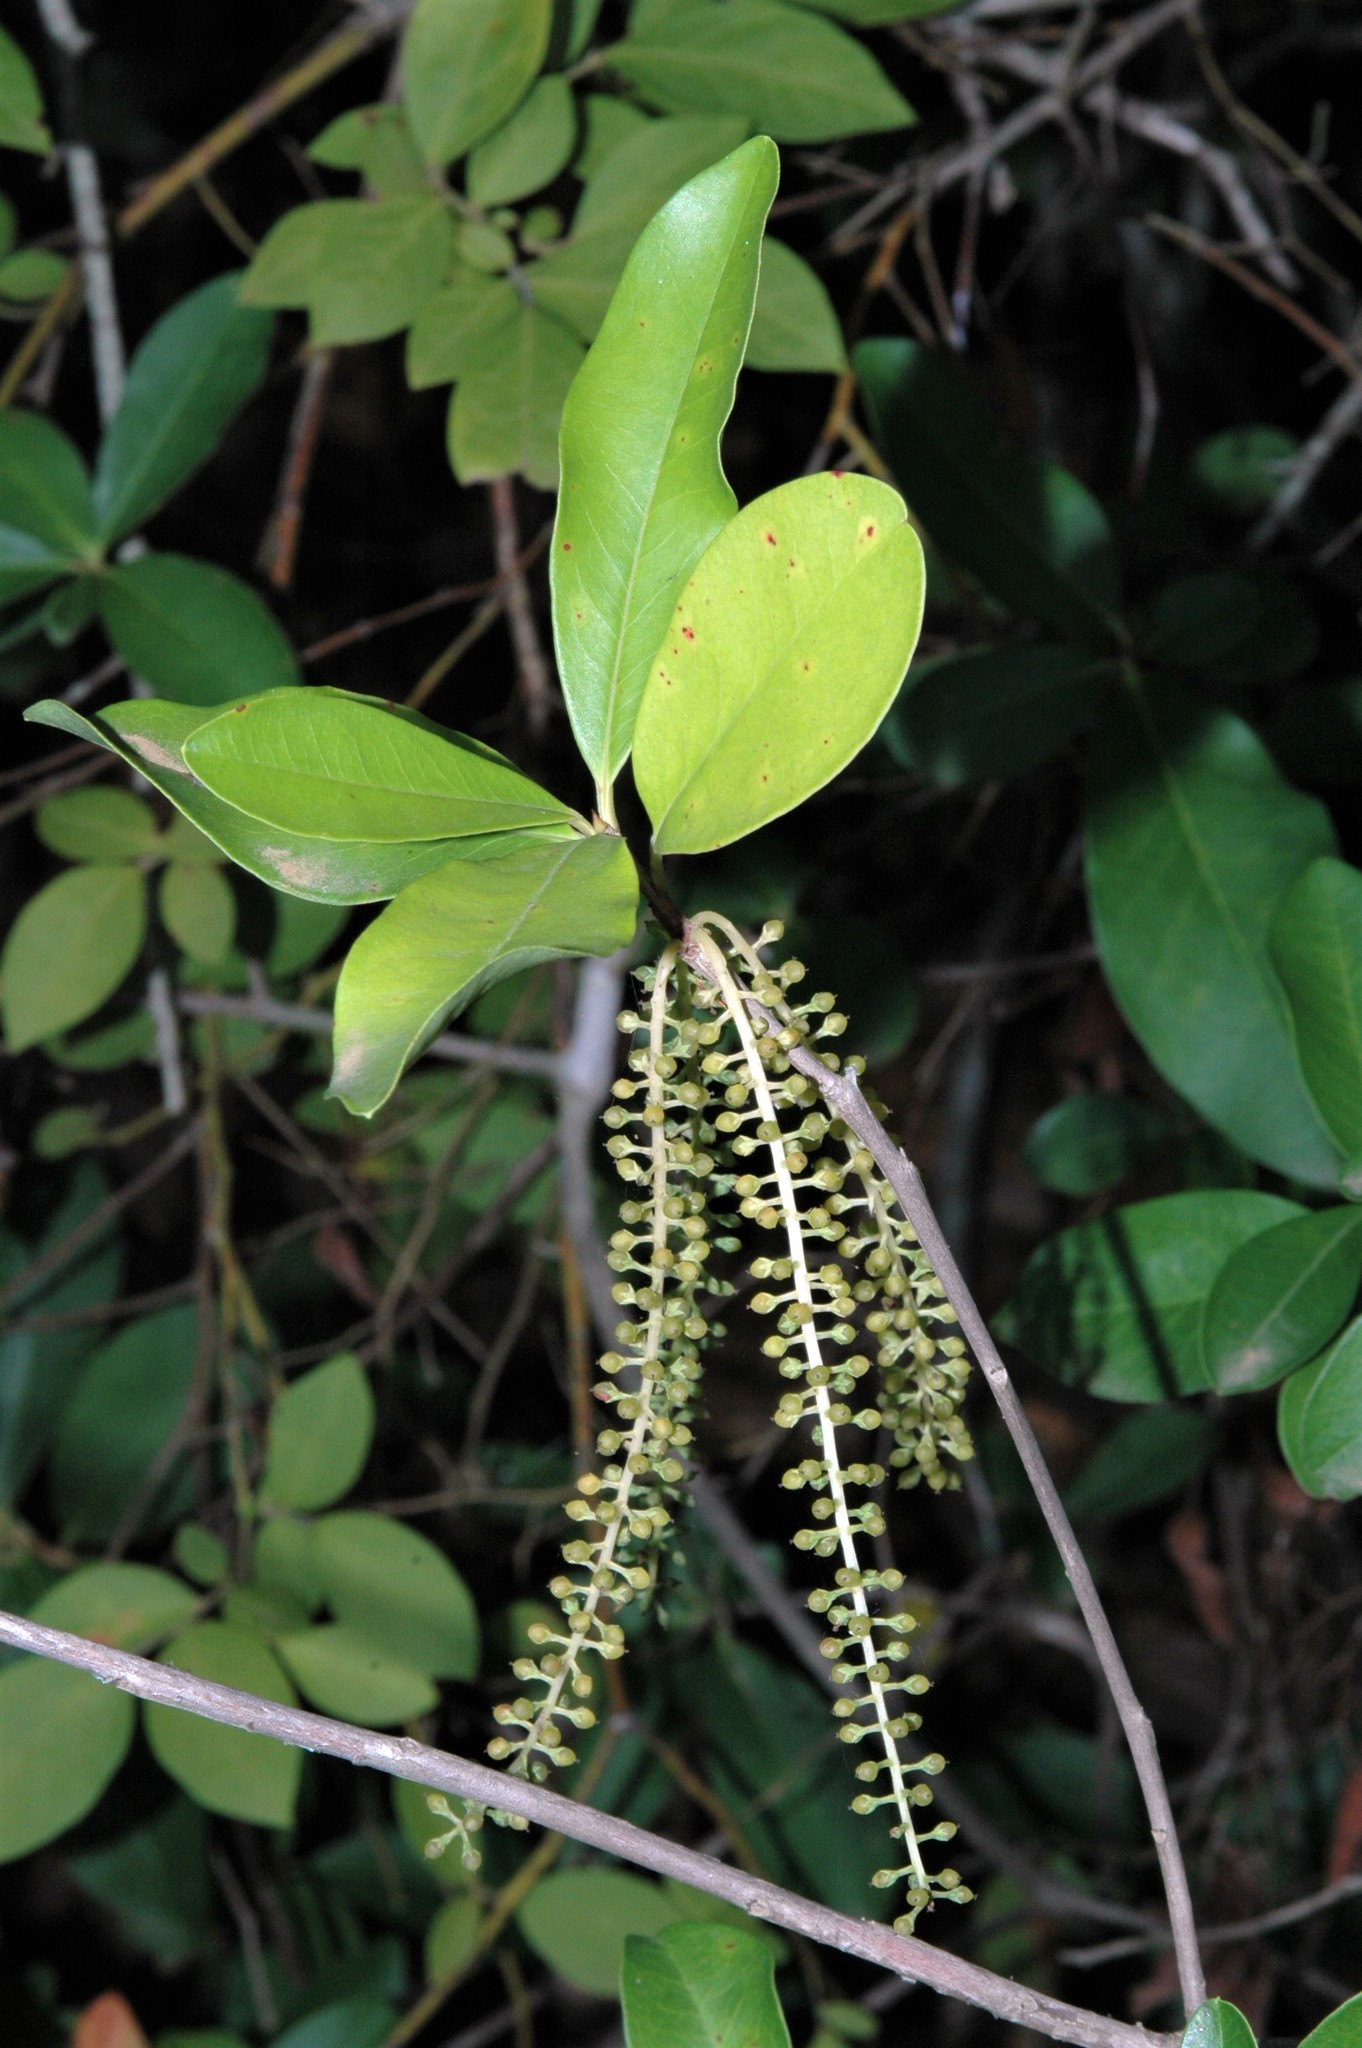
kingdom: Plantae
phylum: Tracheophyta
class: Magnoliopsida
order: Ericales
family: Cyrillaceae
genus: Cyrilla
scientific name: Cyrilla racemiflora
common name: Black titi
